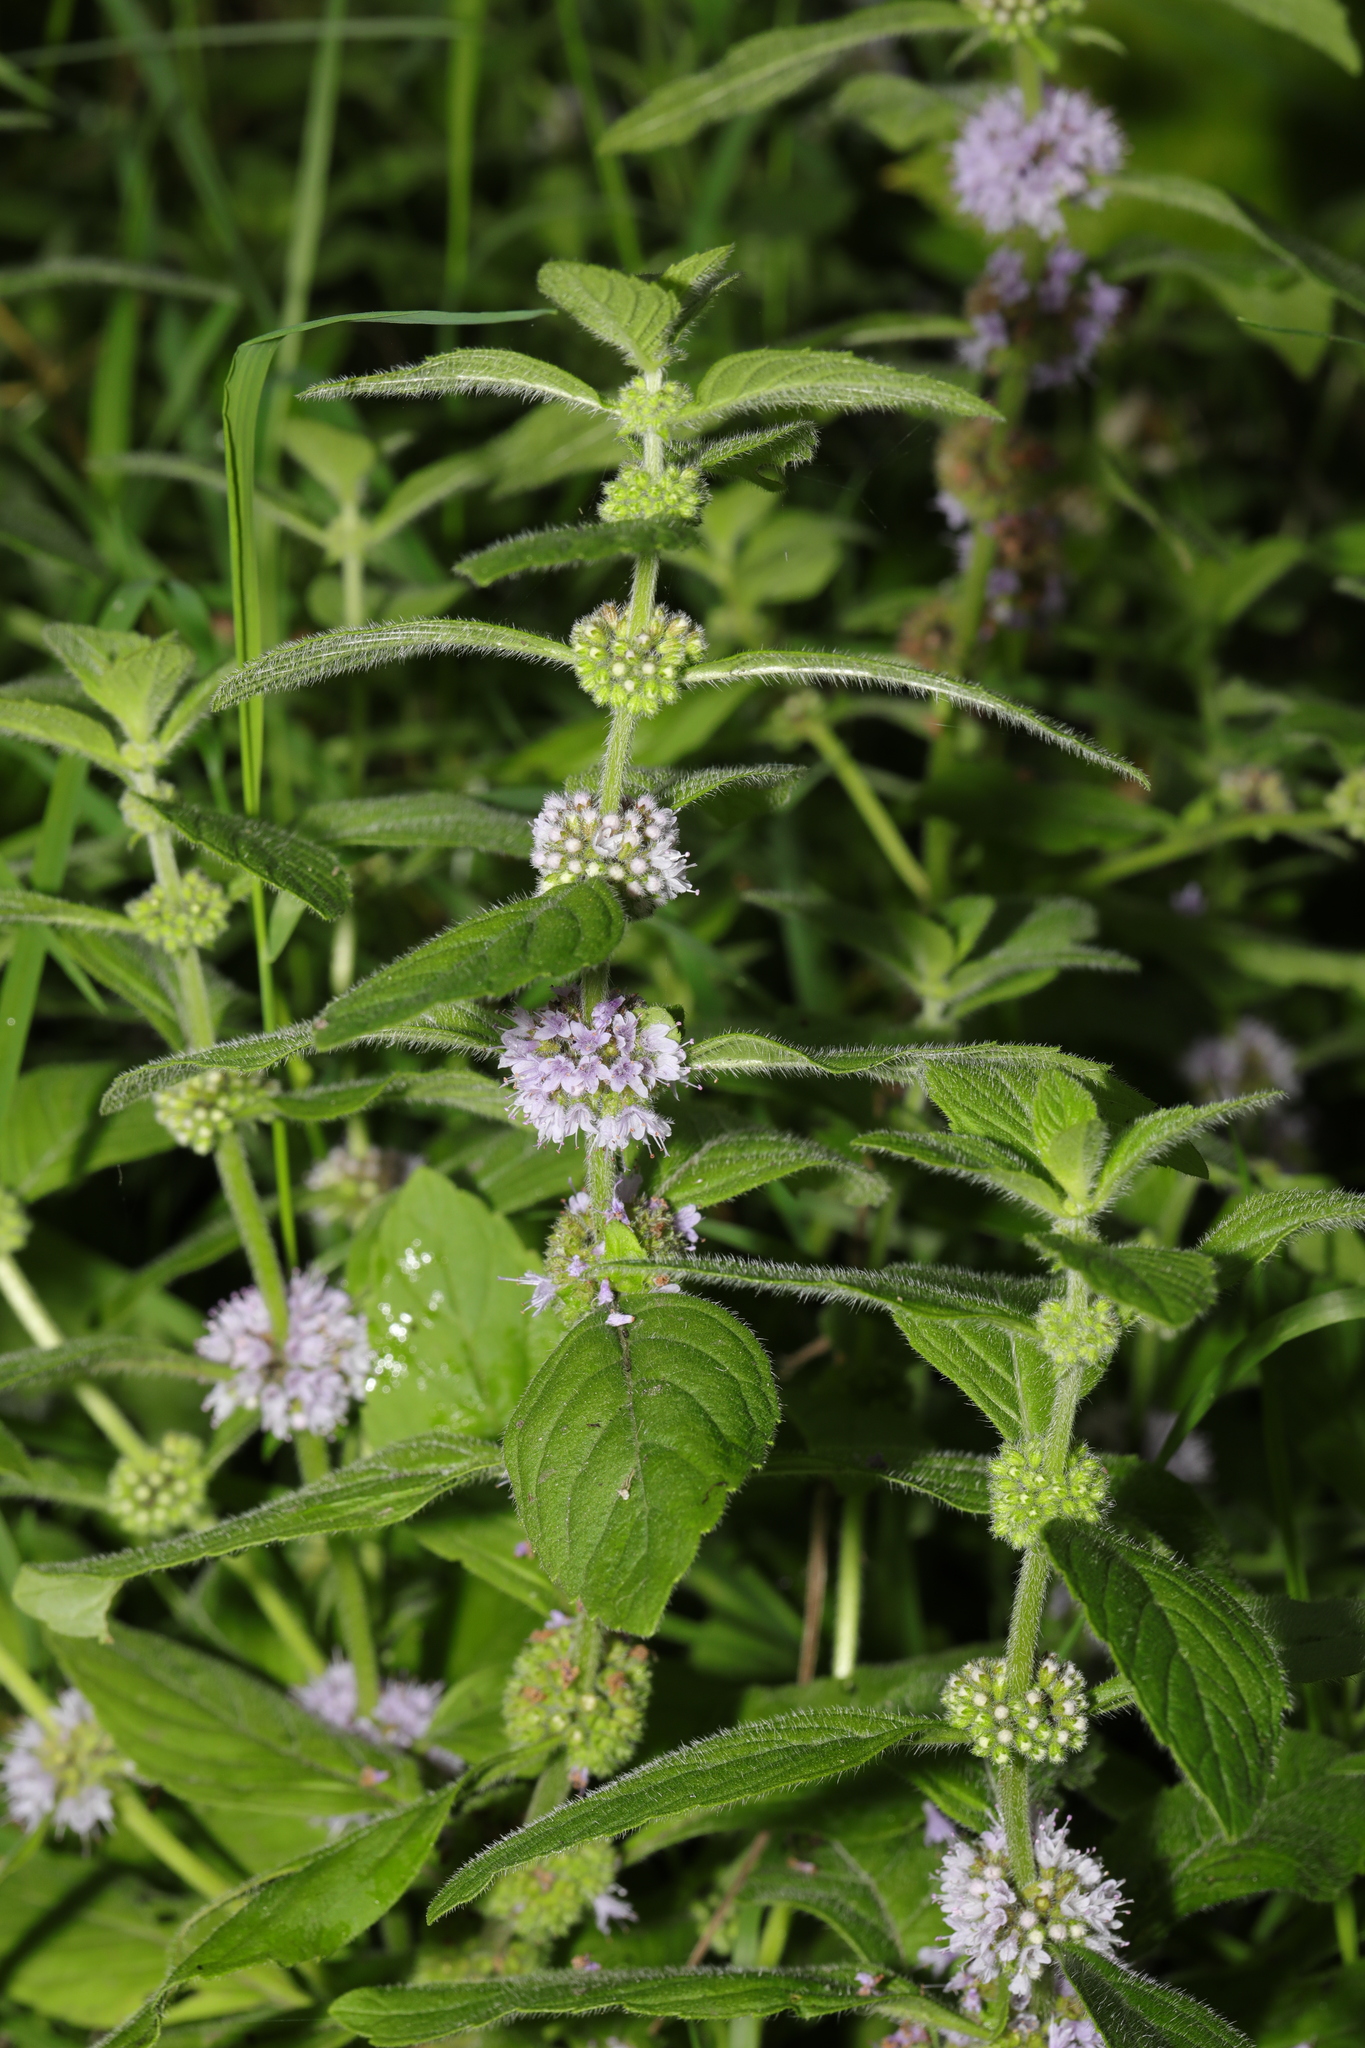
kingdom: Plantae
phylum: Tracheophyta
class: Magnoliopsida
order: Lamiales
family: Lamiaceae
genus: Mentha
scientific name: Mentha verticillata
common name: Mint
